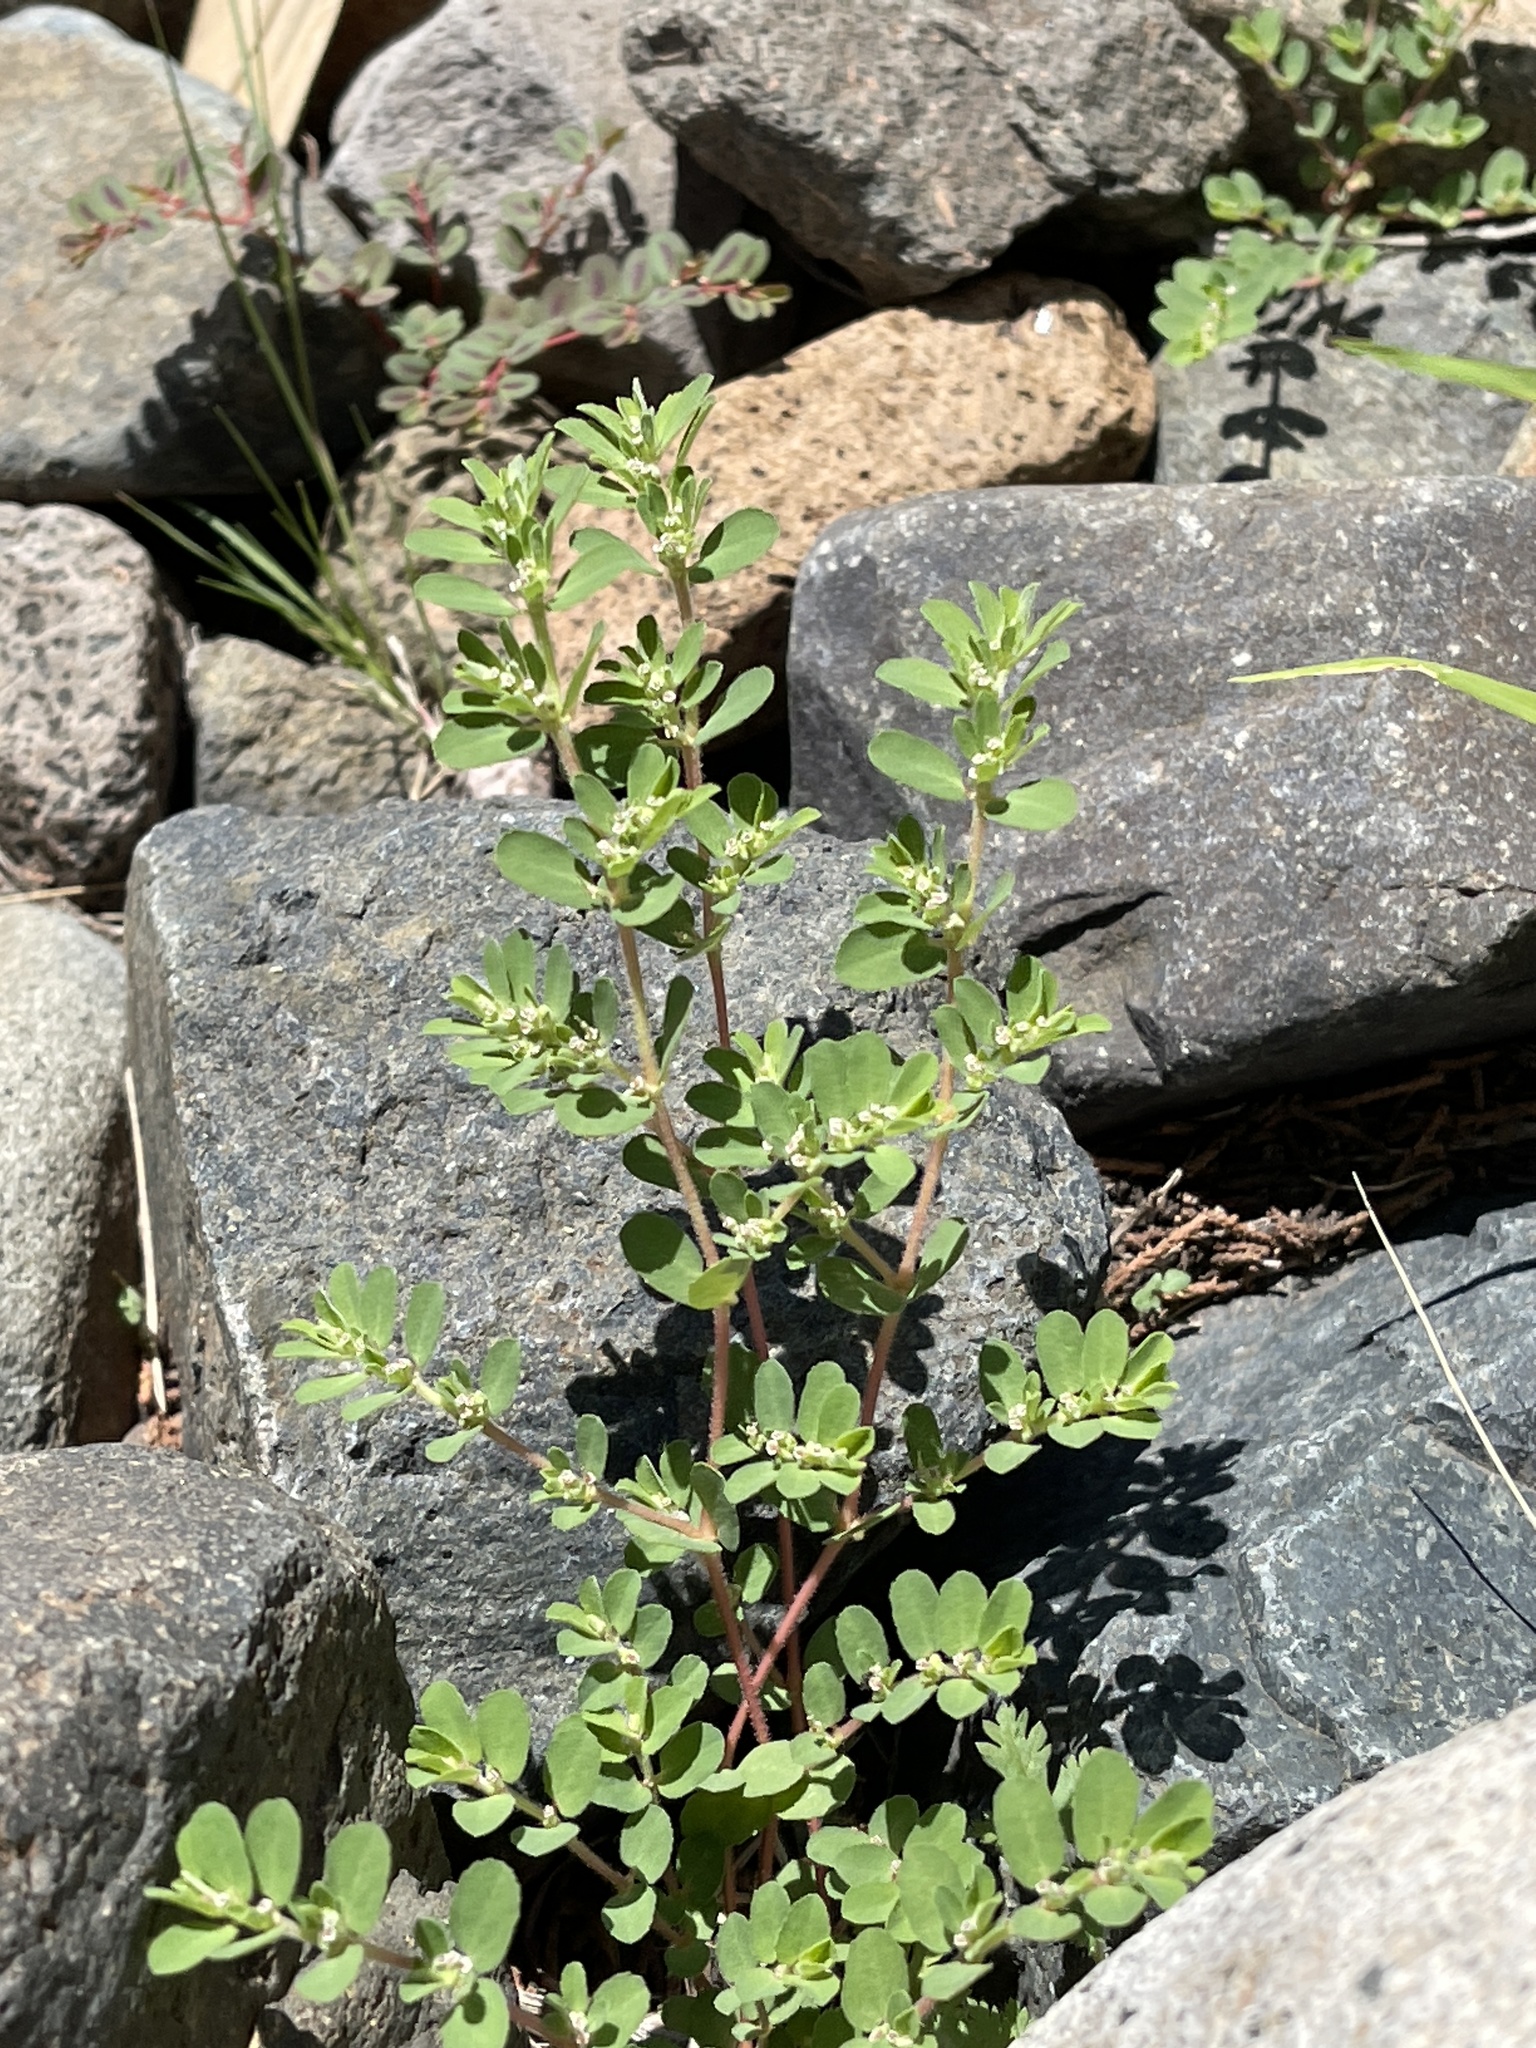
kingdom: Plantae
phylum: Tracheophyta
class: Magnoliopsida
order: Malpighiales
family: Euphorbiaceae
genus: Euphorbia
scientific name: Euphorbia stictospora
